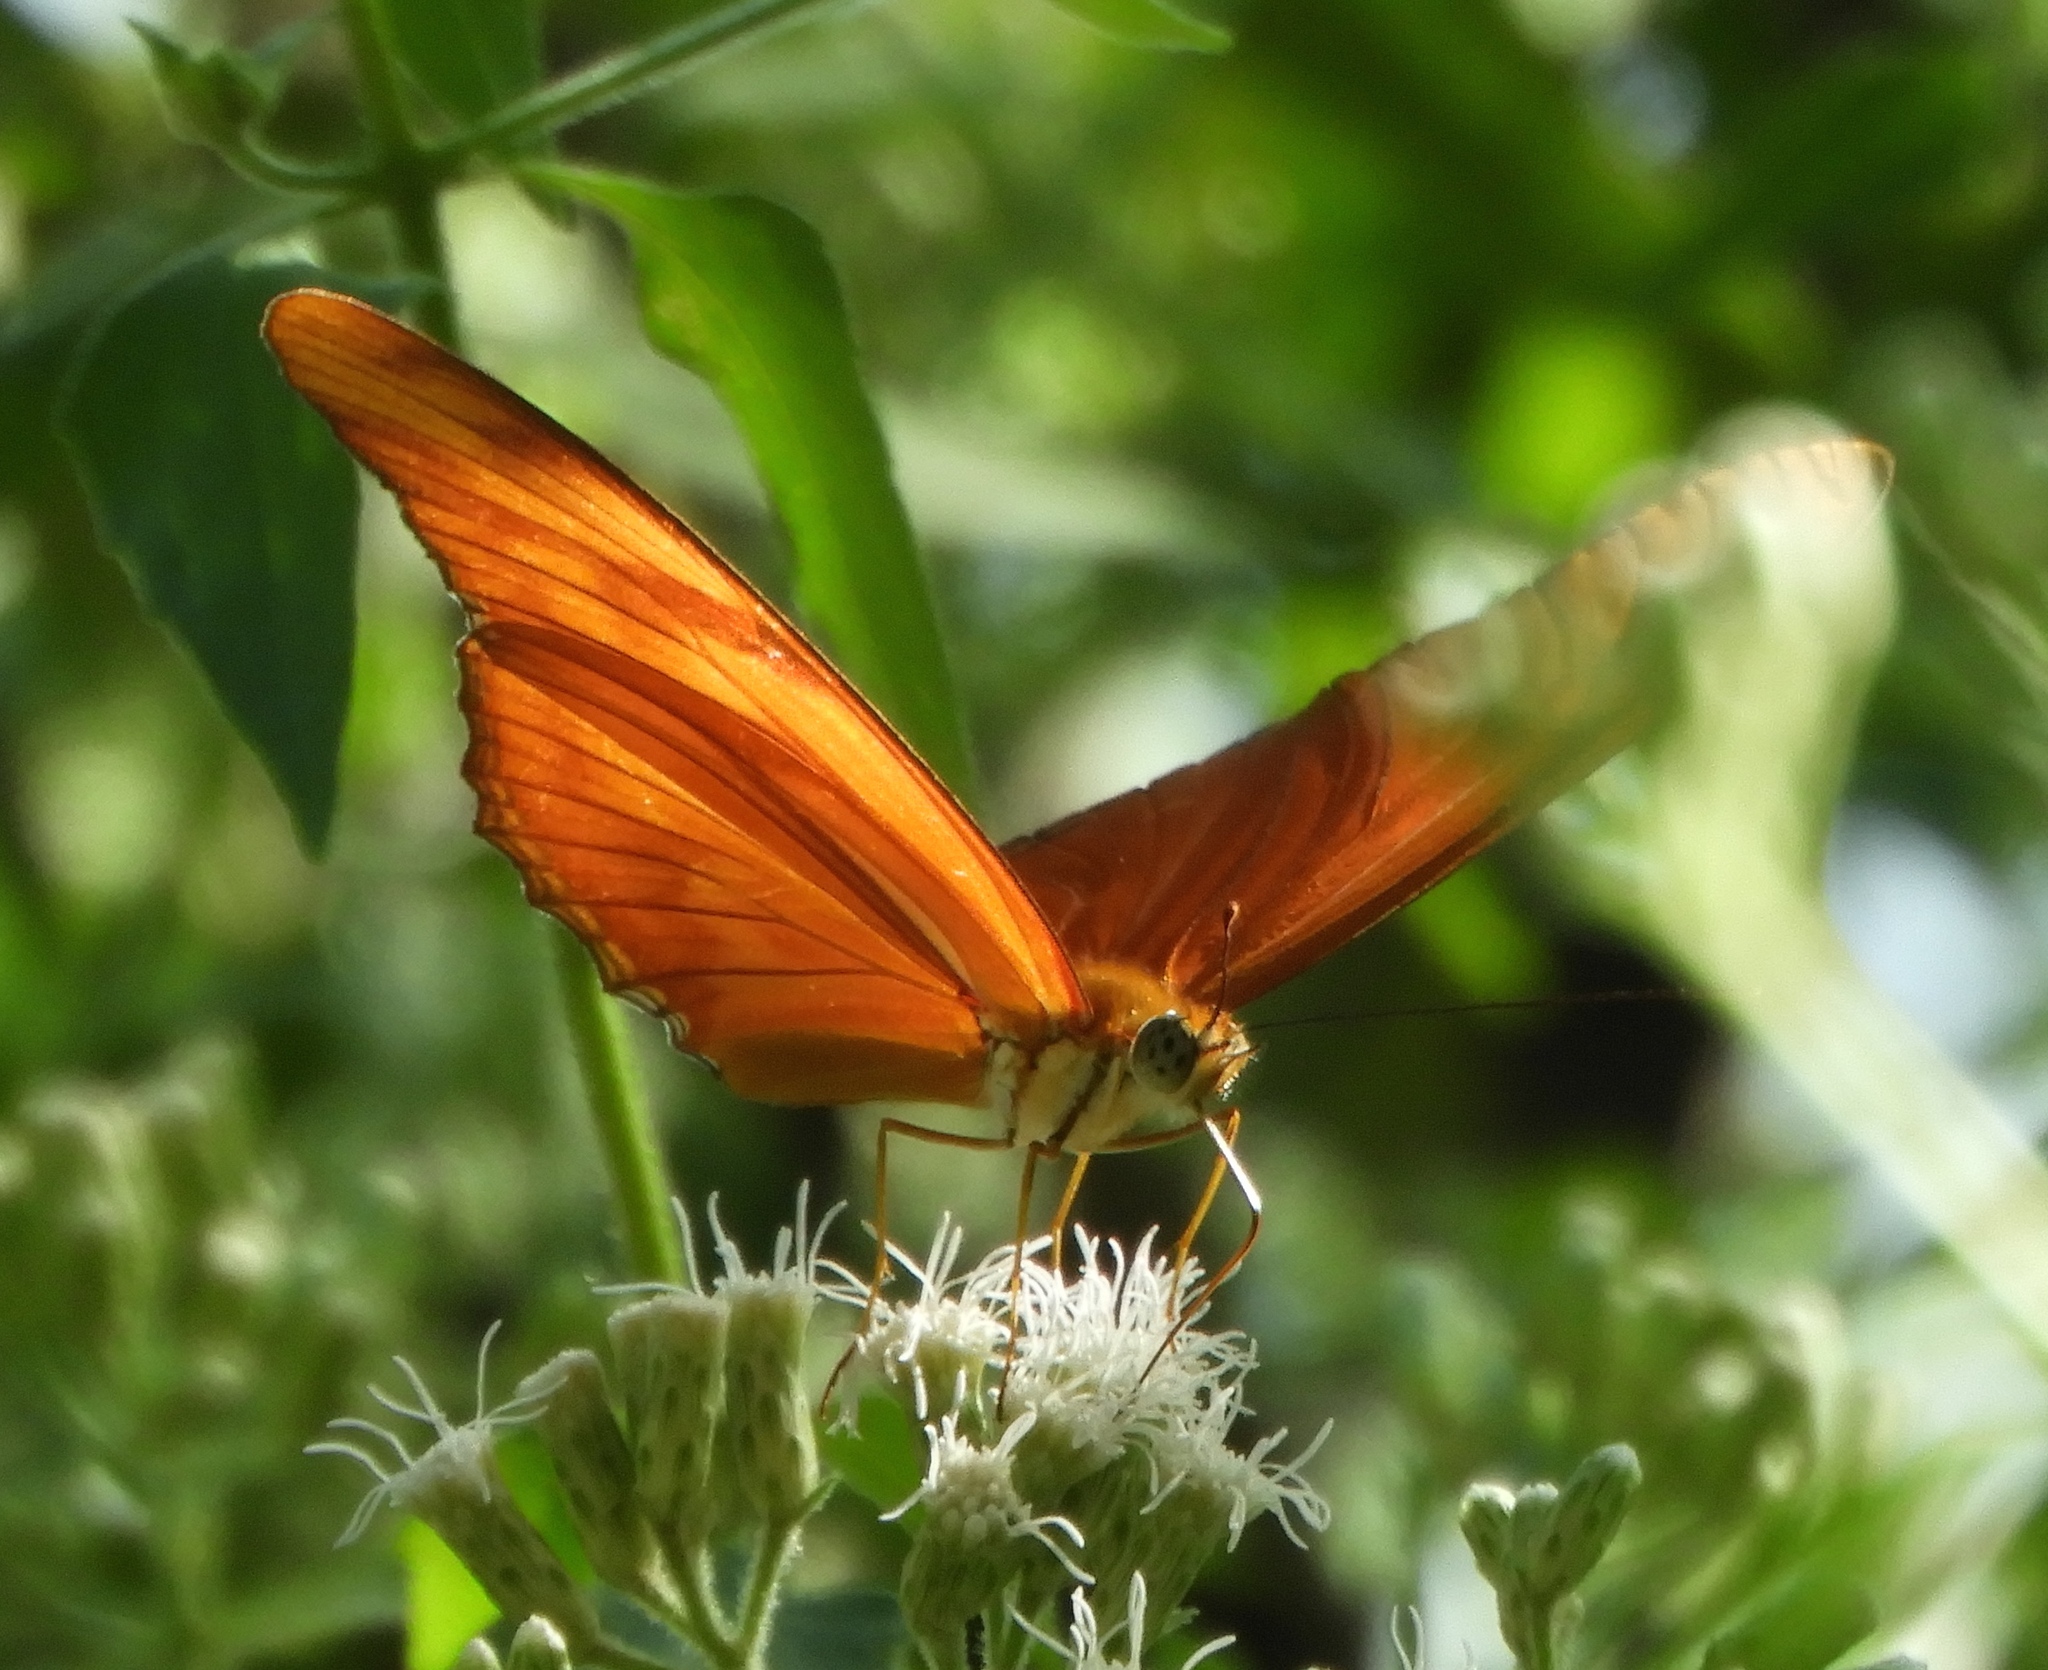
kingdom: Animalia
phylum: Arthropoda
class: Insecta
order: Lepidoptera
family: Nymphalidae
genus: Dryas
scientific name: Dryas iulia
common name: Flambeau
